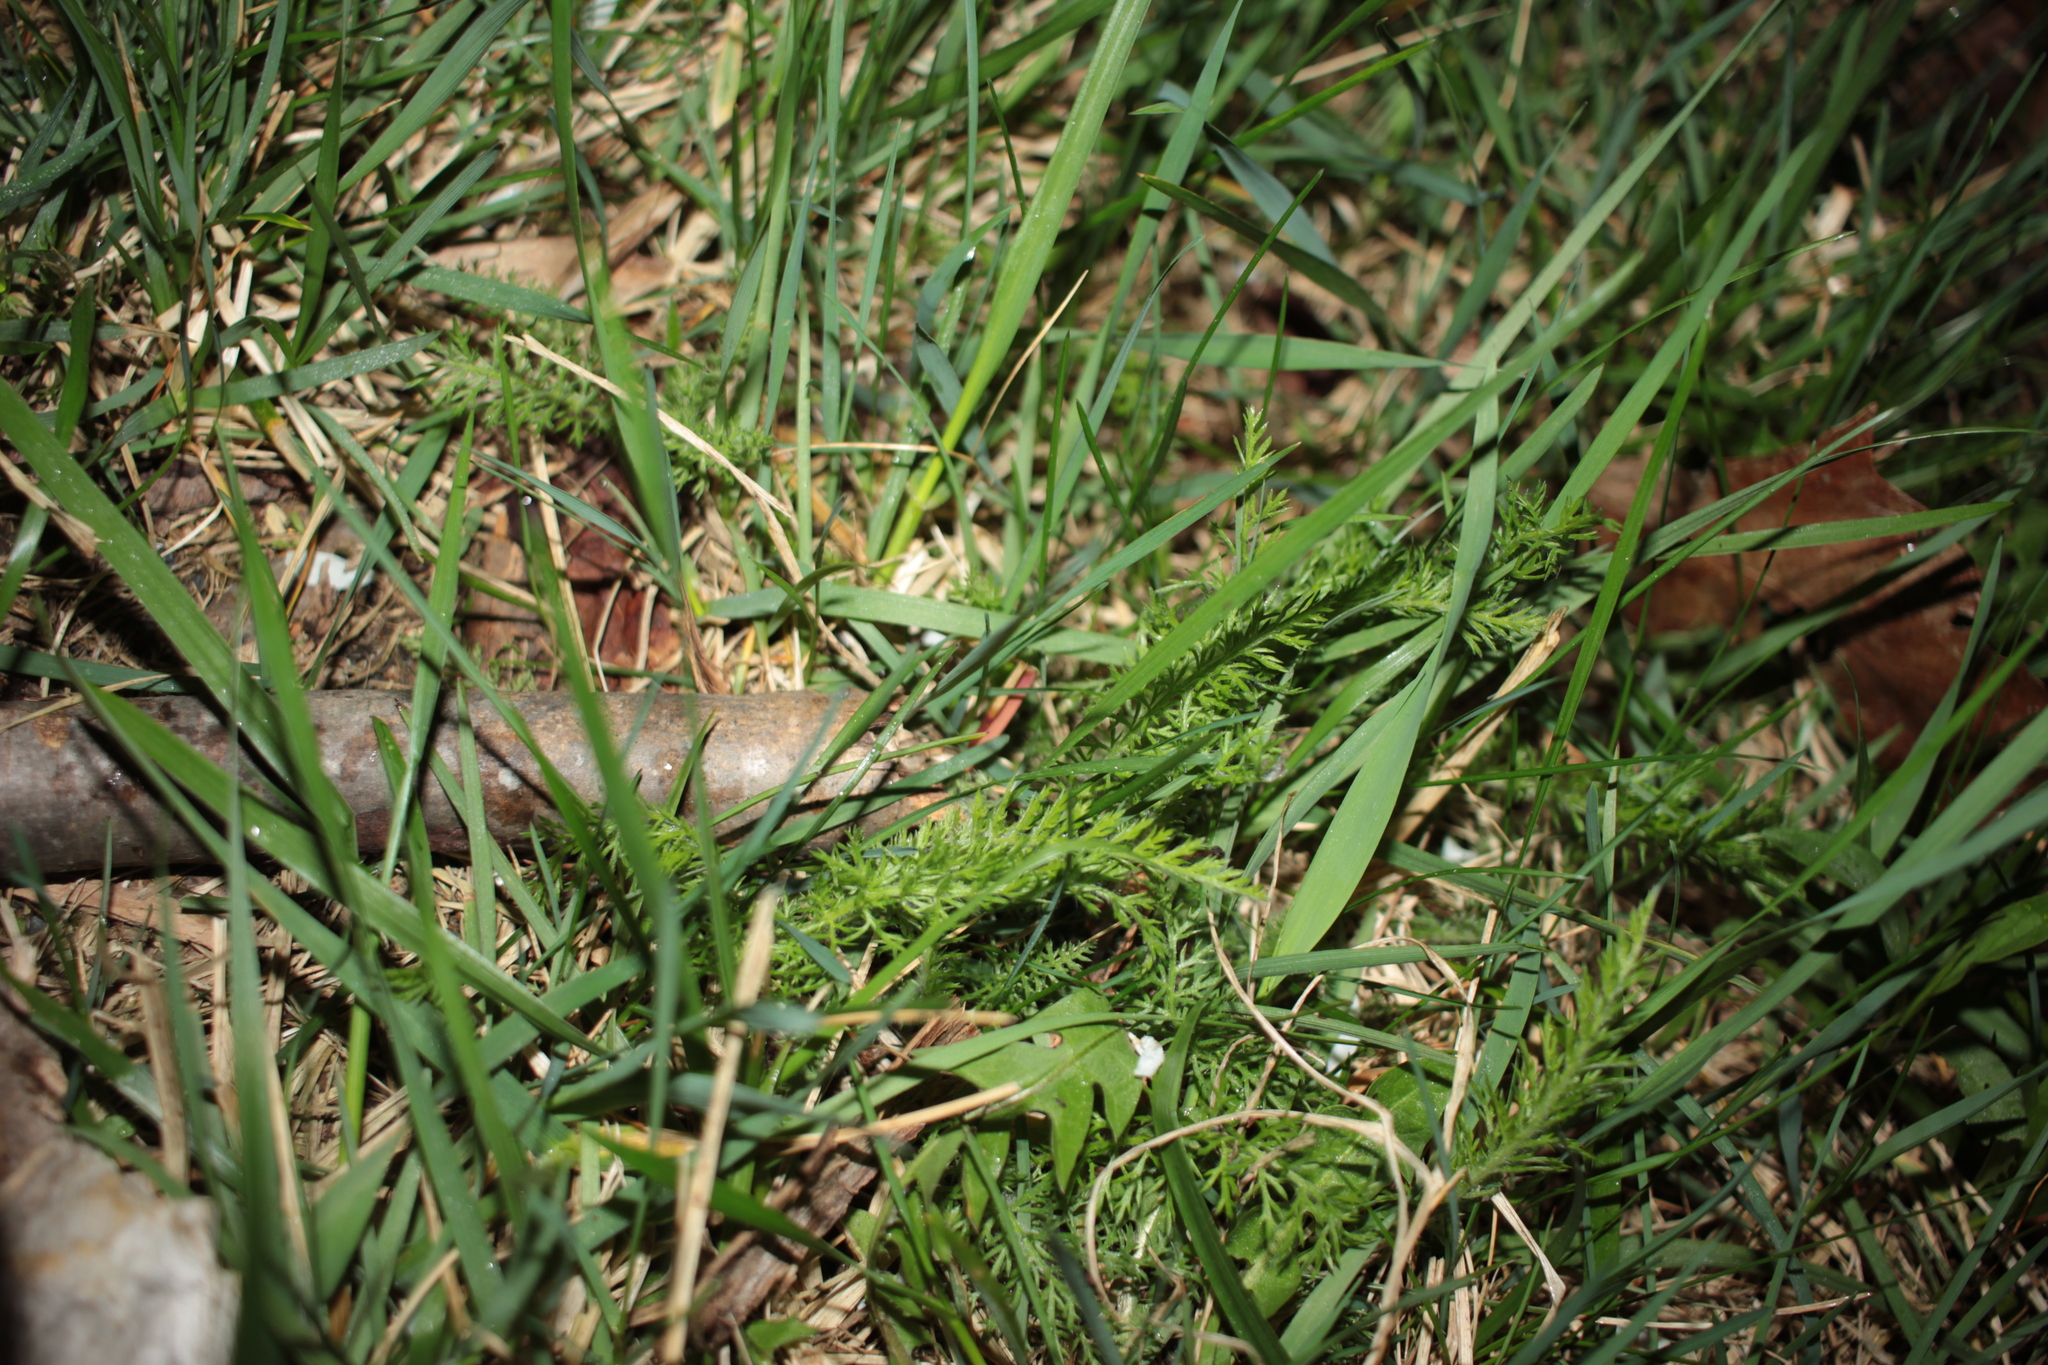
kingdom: Plantae
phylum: Tracheophyta
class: Magnoliopsida
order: Asterales
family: Asteraceae
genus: Achillea
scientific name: Achillea millefolium
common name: Yarrow
